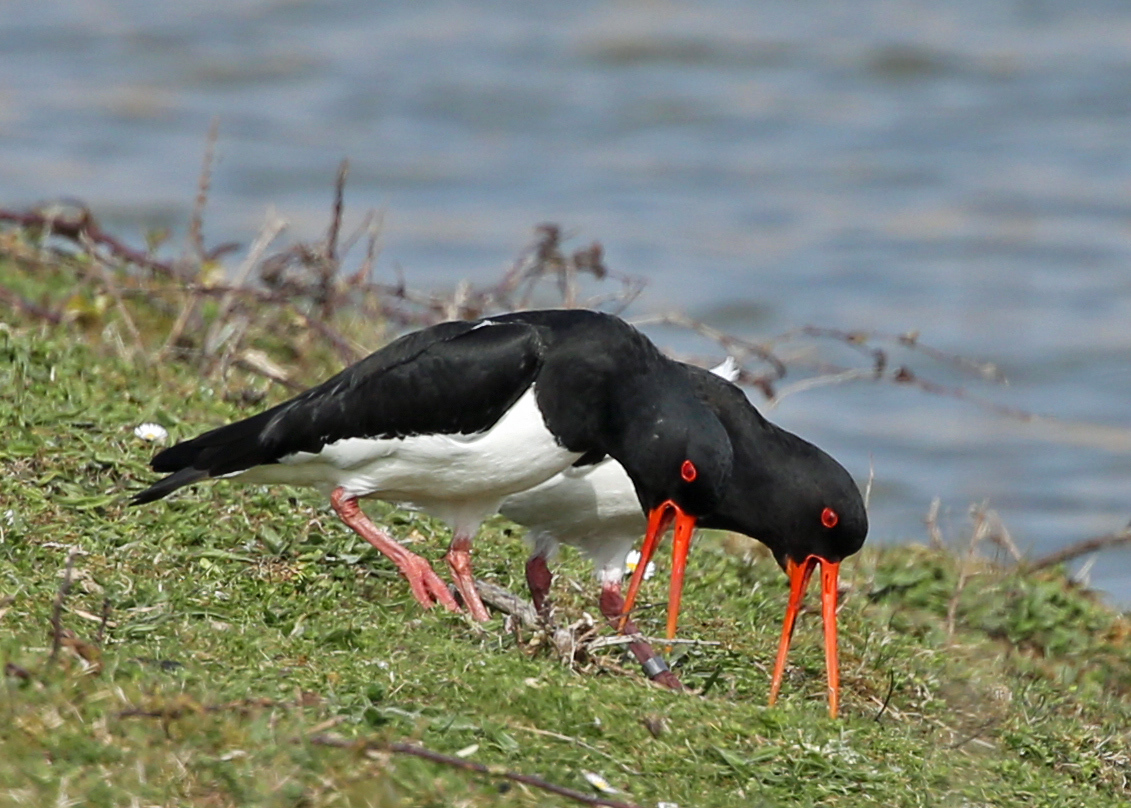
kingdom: Animalia
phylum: Chordata
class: Aves
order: Charadriiformes
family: Haematopodidae
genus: Haematopus
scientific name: Haematopus ostralegus
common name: Eurasian oystercatcher
